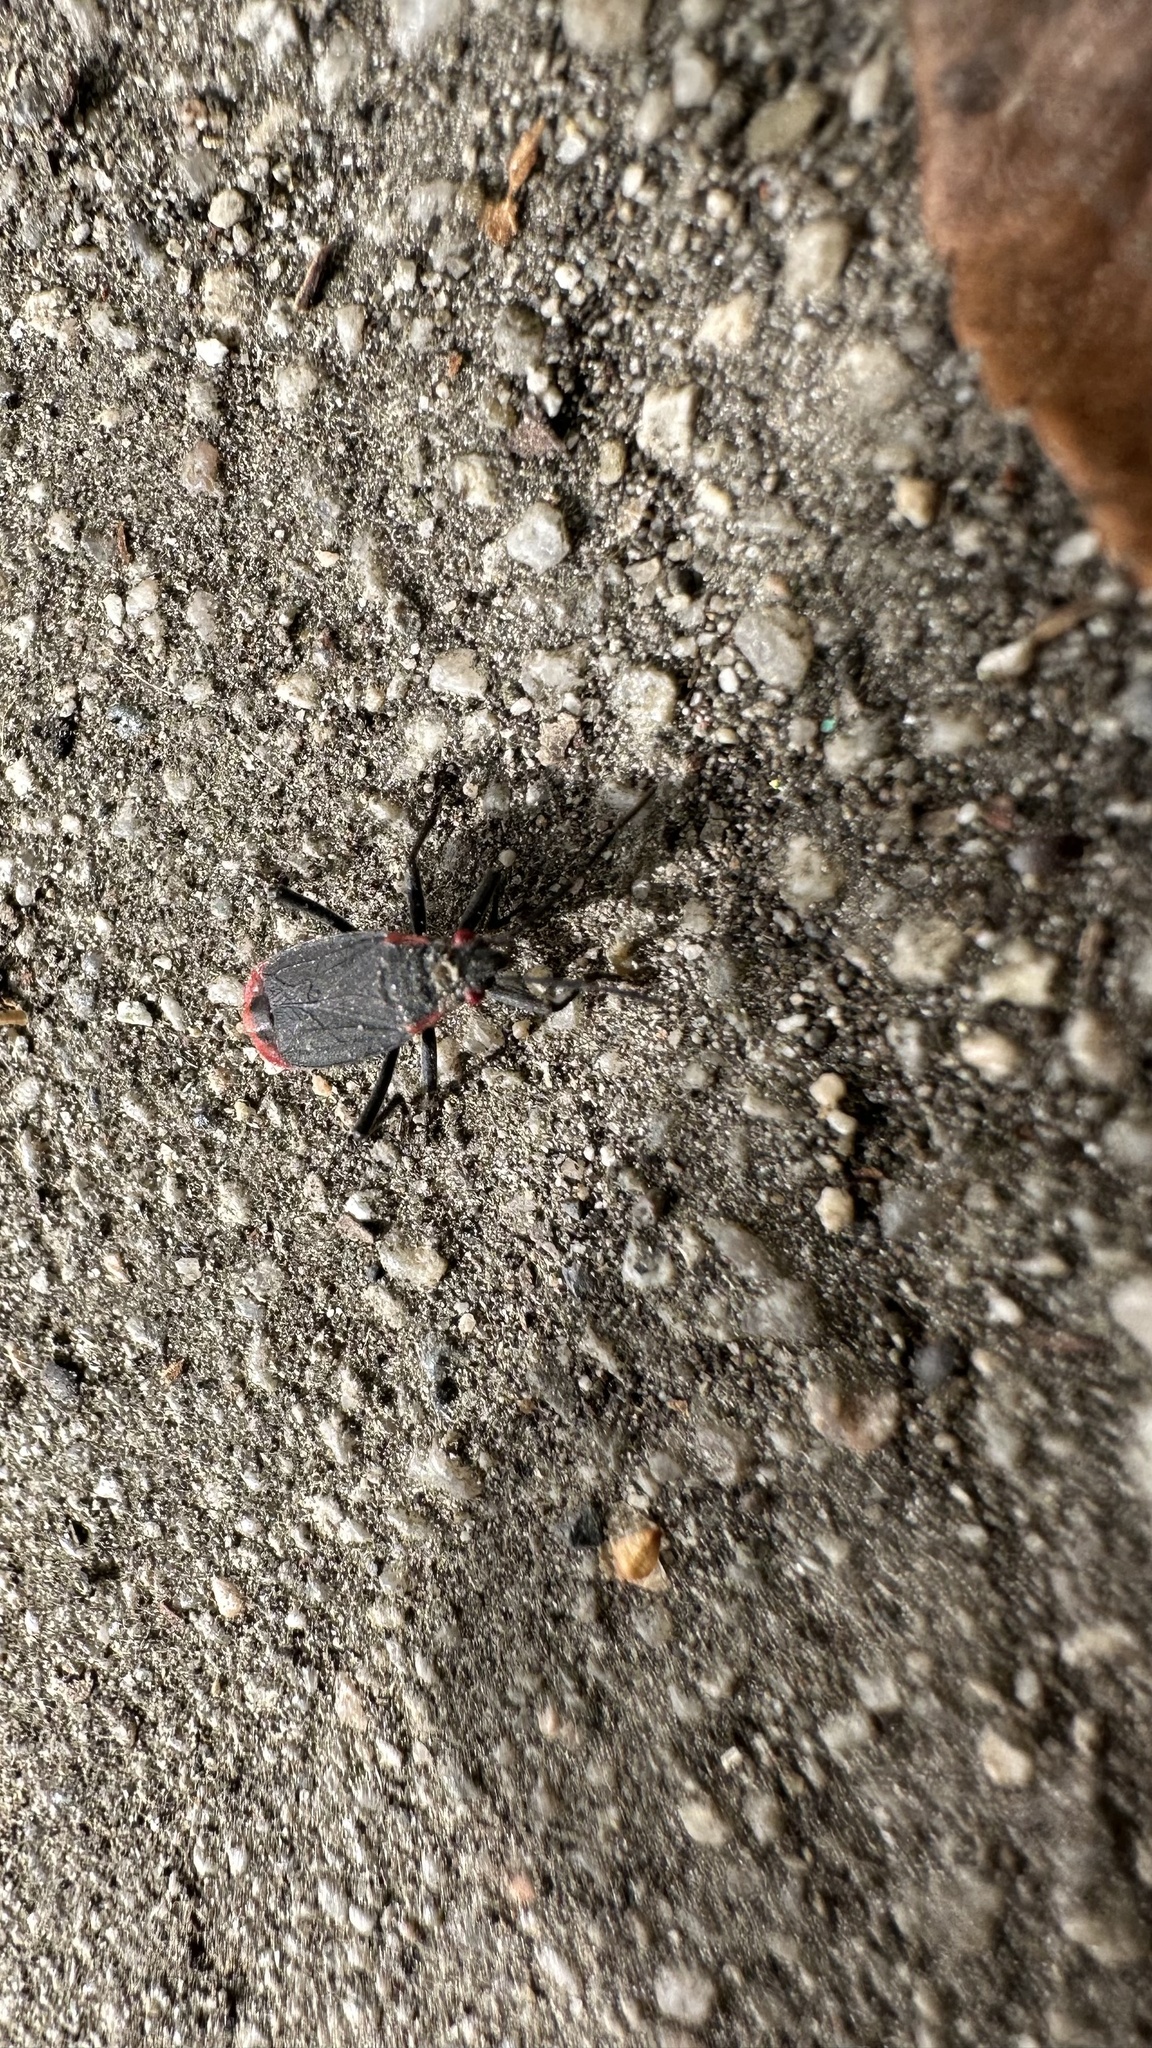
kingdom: Animalia
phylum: Arthropoda
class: Insecta
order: Hemiptera
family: Rhopalidae
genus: Jadera
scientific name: Jadera haematoloma
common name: Red-shouldered bug
